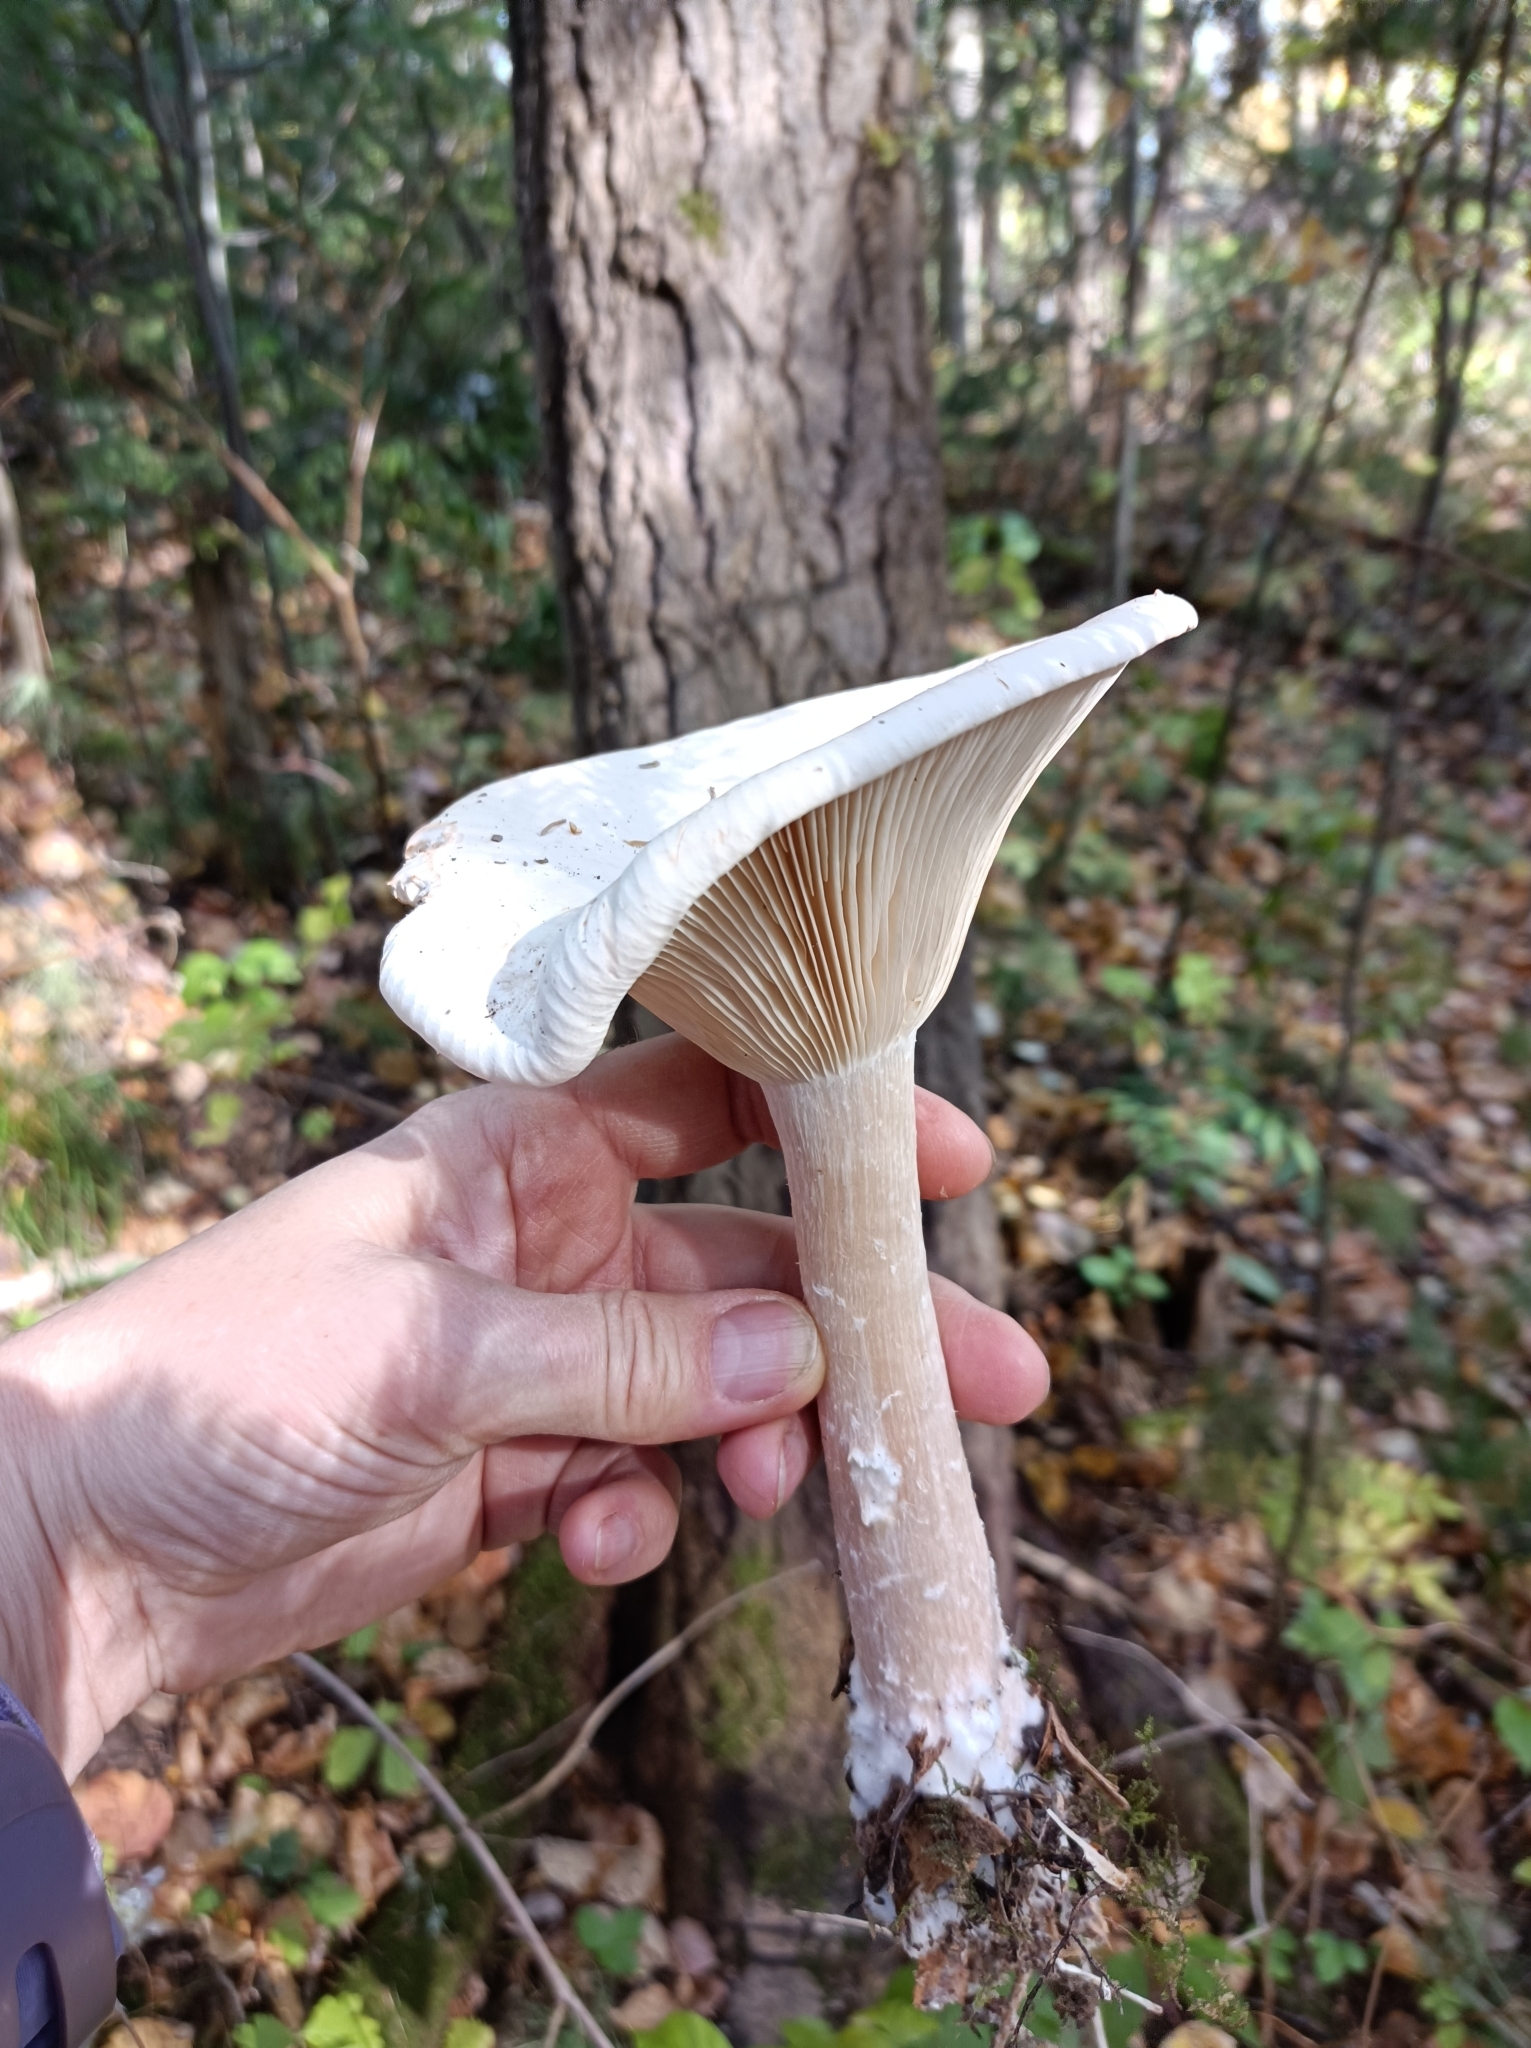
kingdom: Fungi
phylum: Basidiomycota
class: Agaricomycetes
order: Agaricales
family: Tricholomataceae
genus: Infundibulicybe
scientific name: Infundibulicybe geotropa
